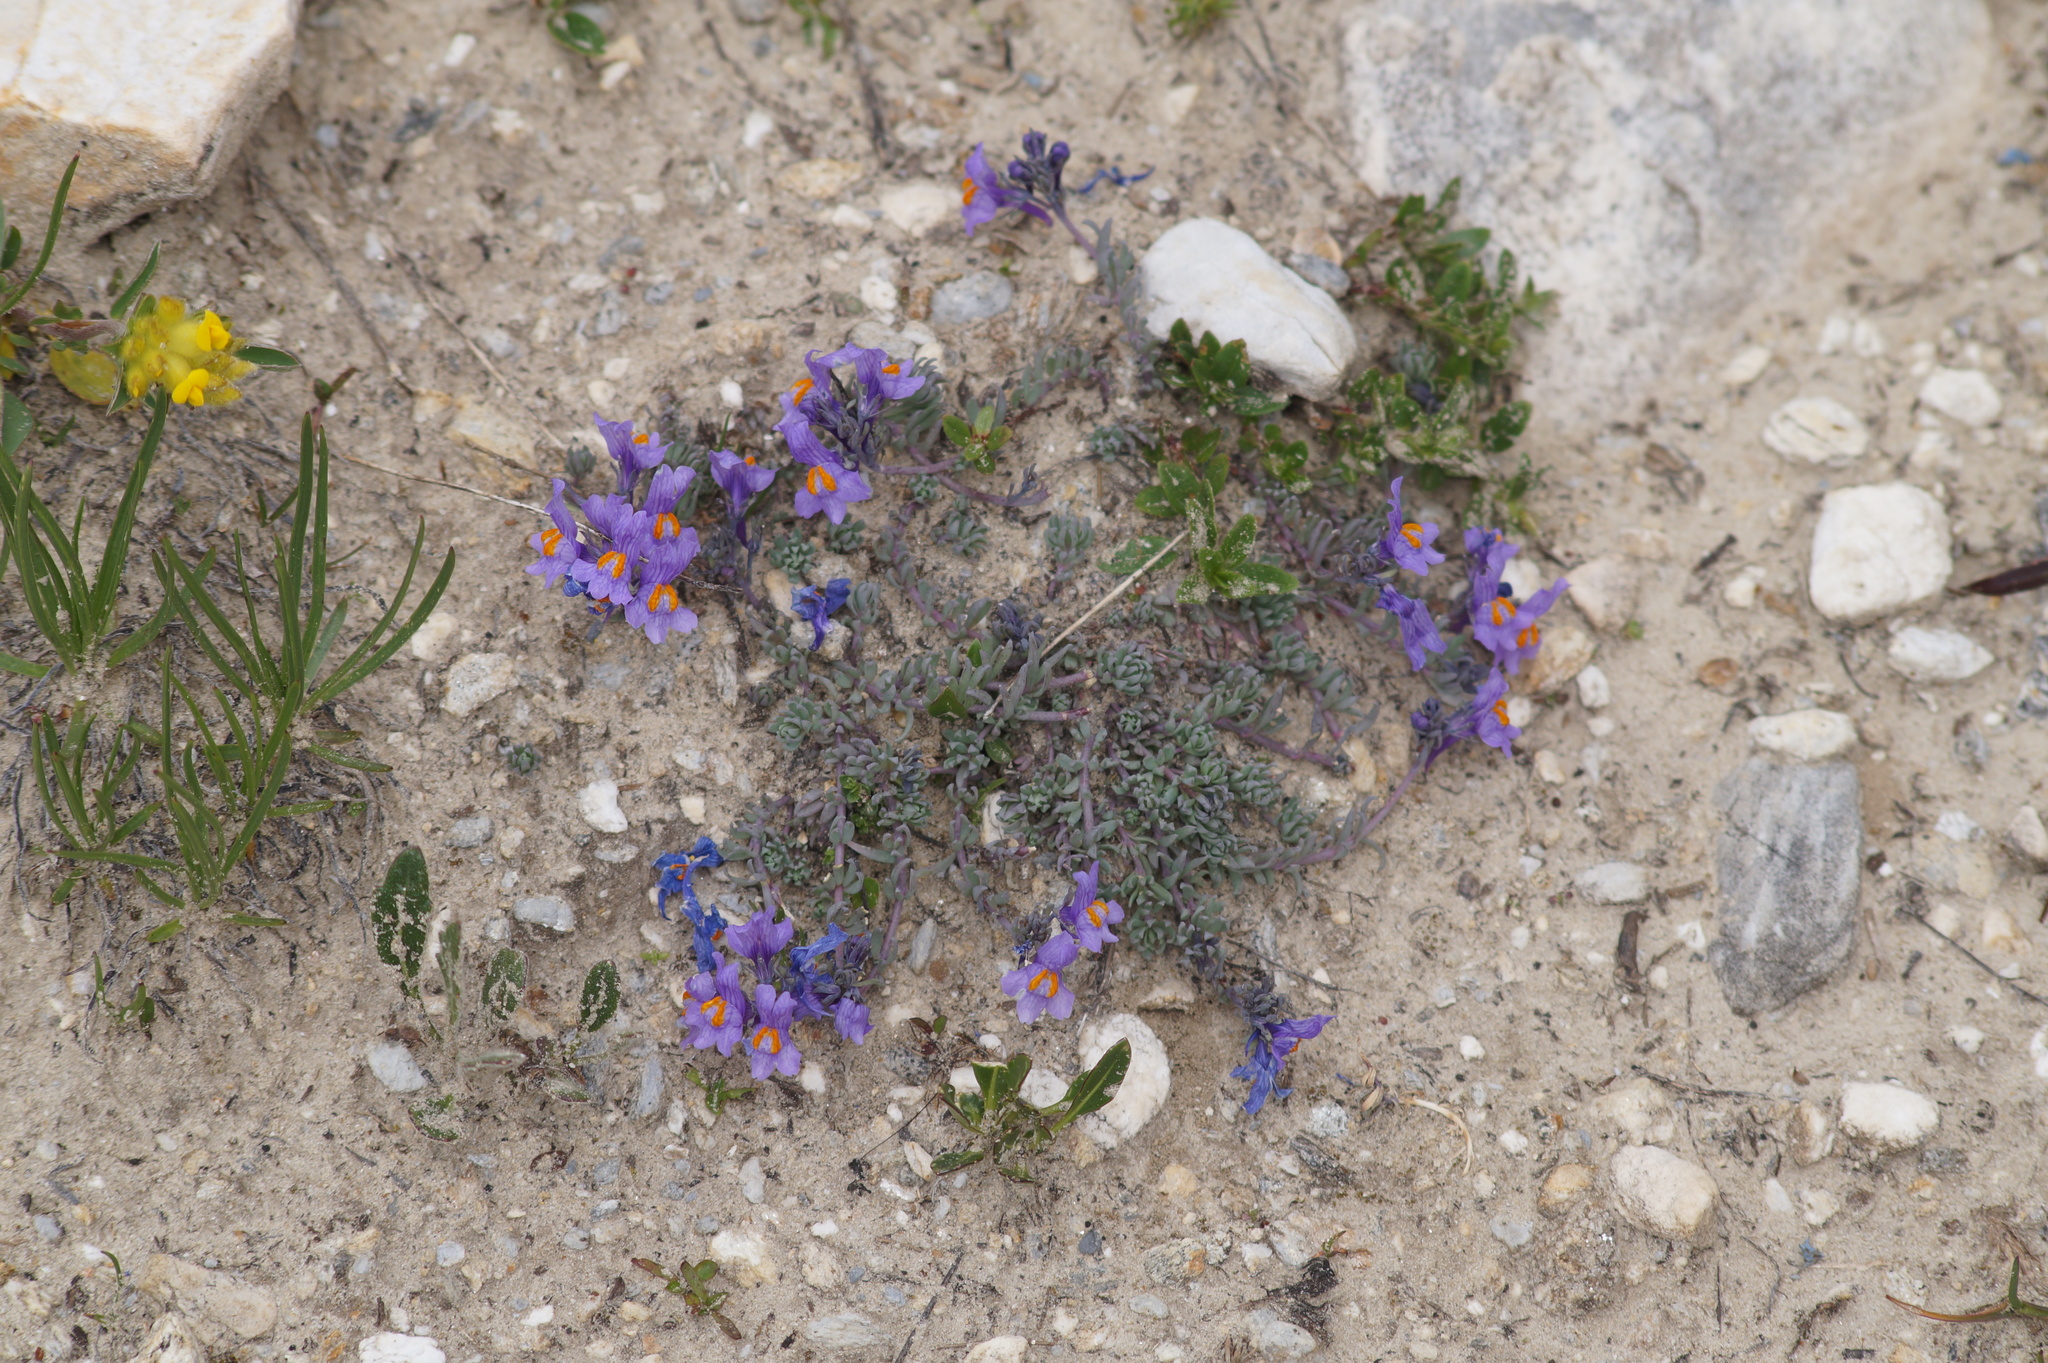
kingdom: Plantae
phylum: Tracheophyta
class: Magnoliopsida
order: Lamiales
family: Plantaginaceae
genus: Linaria
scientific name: Linaria alpina
